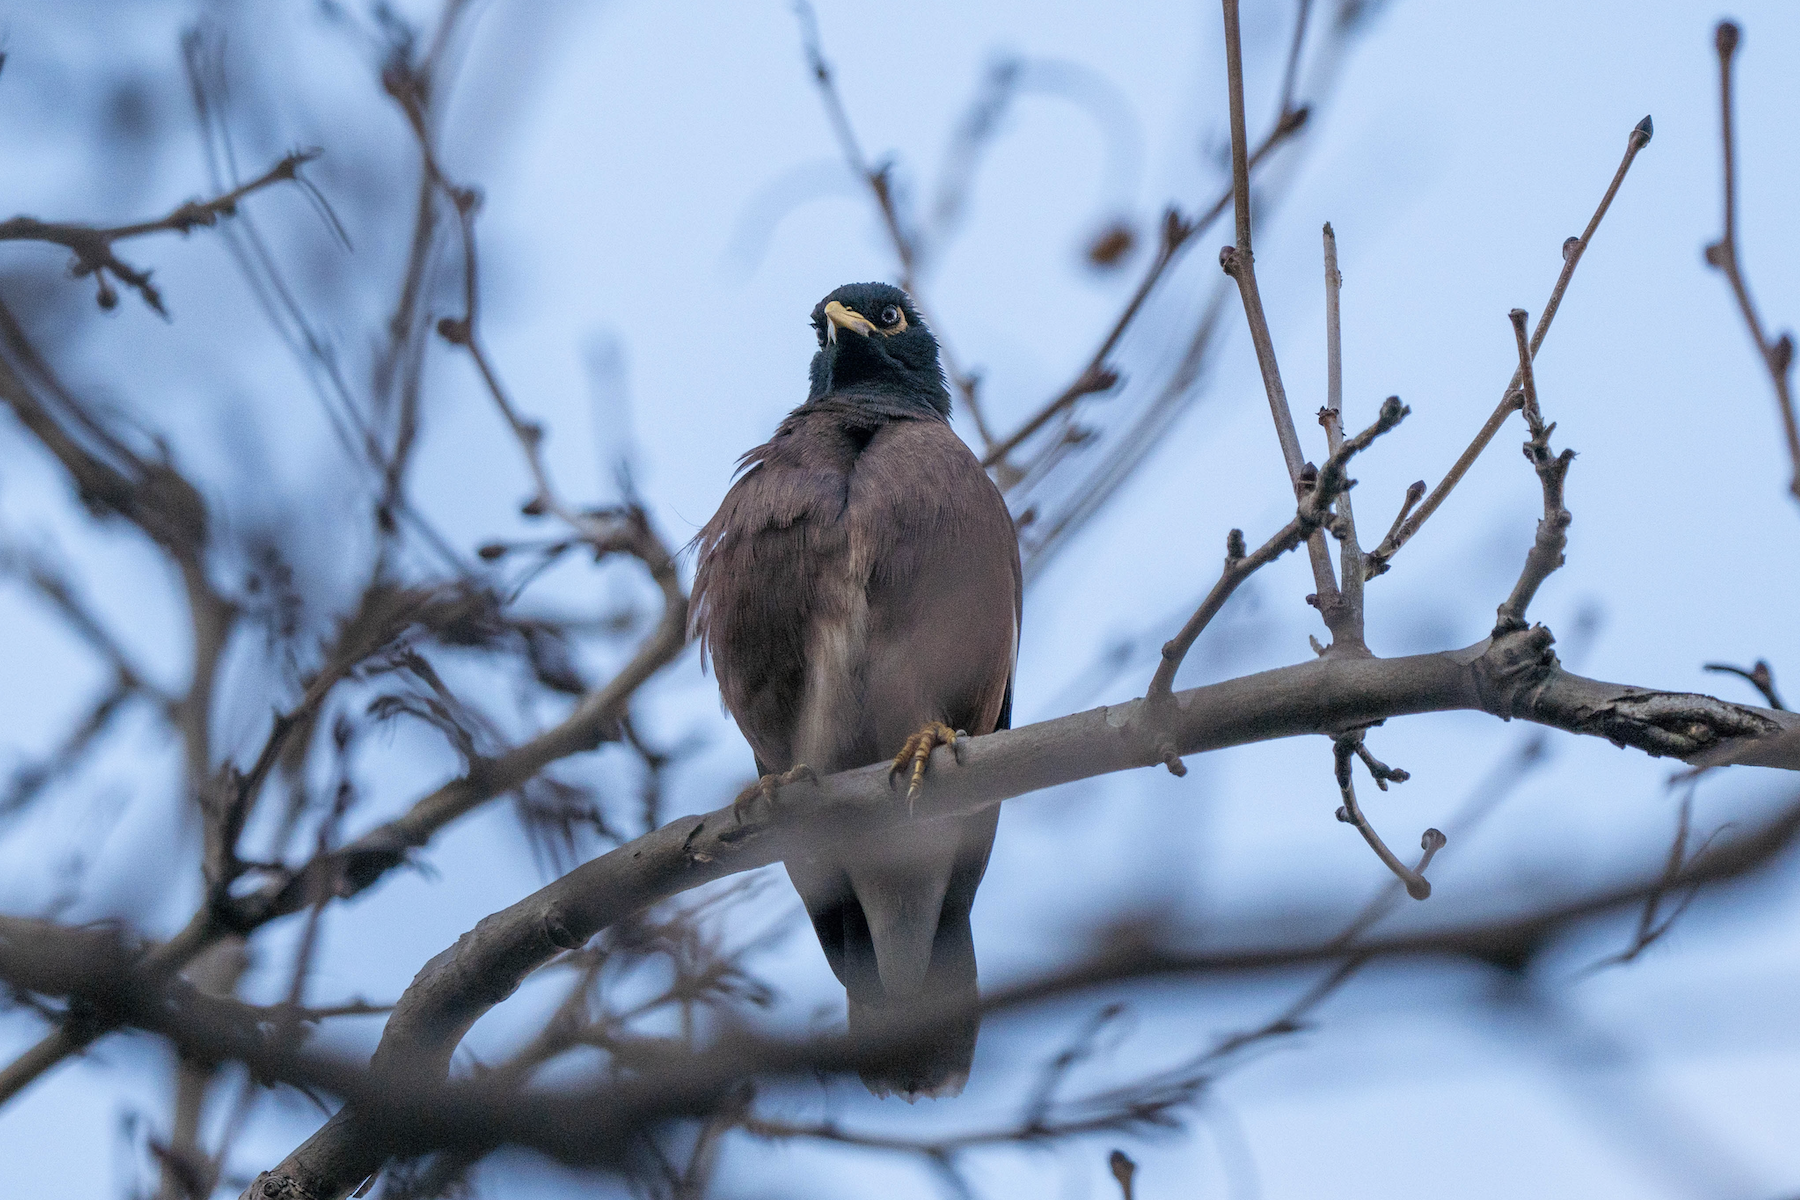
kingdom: Animalia
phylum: Chordata
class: Aves
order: Passeriformes
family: Sturnidae
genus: Acridotheres
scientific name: Acridotheres tristis
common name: Common myna
